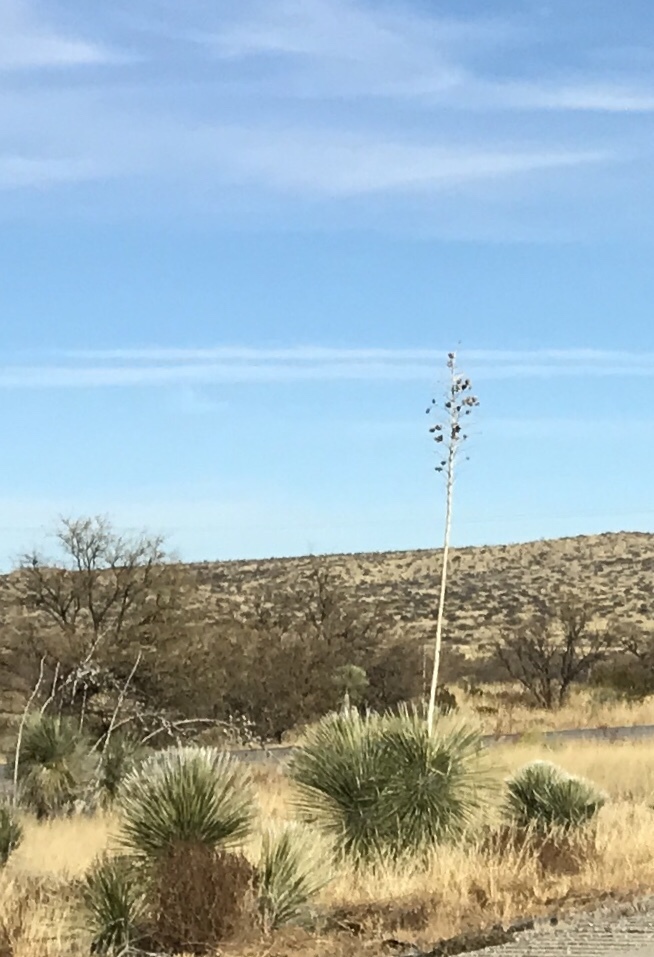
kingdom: Plantae
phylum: Tracheophyta
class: Liliopsida
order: Asparagales
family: Asparagaceae
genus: Yucca
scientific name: Yucca elata
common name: Palmella
